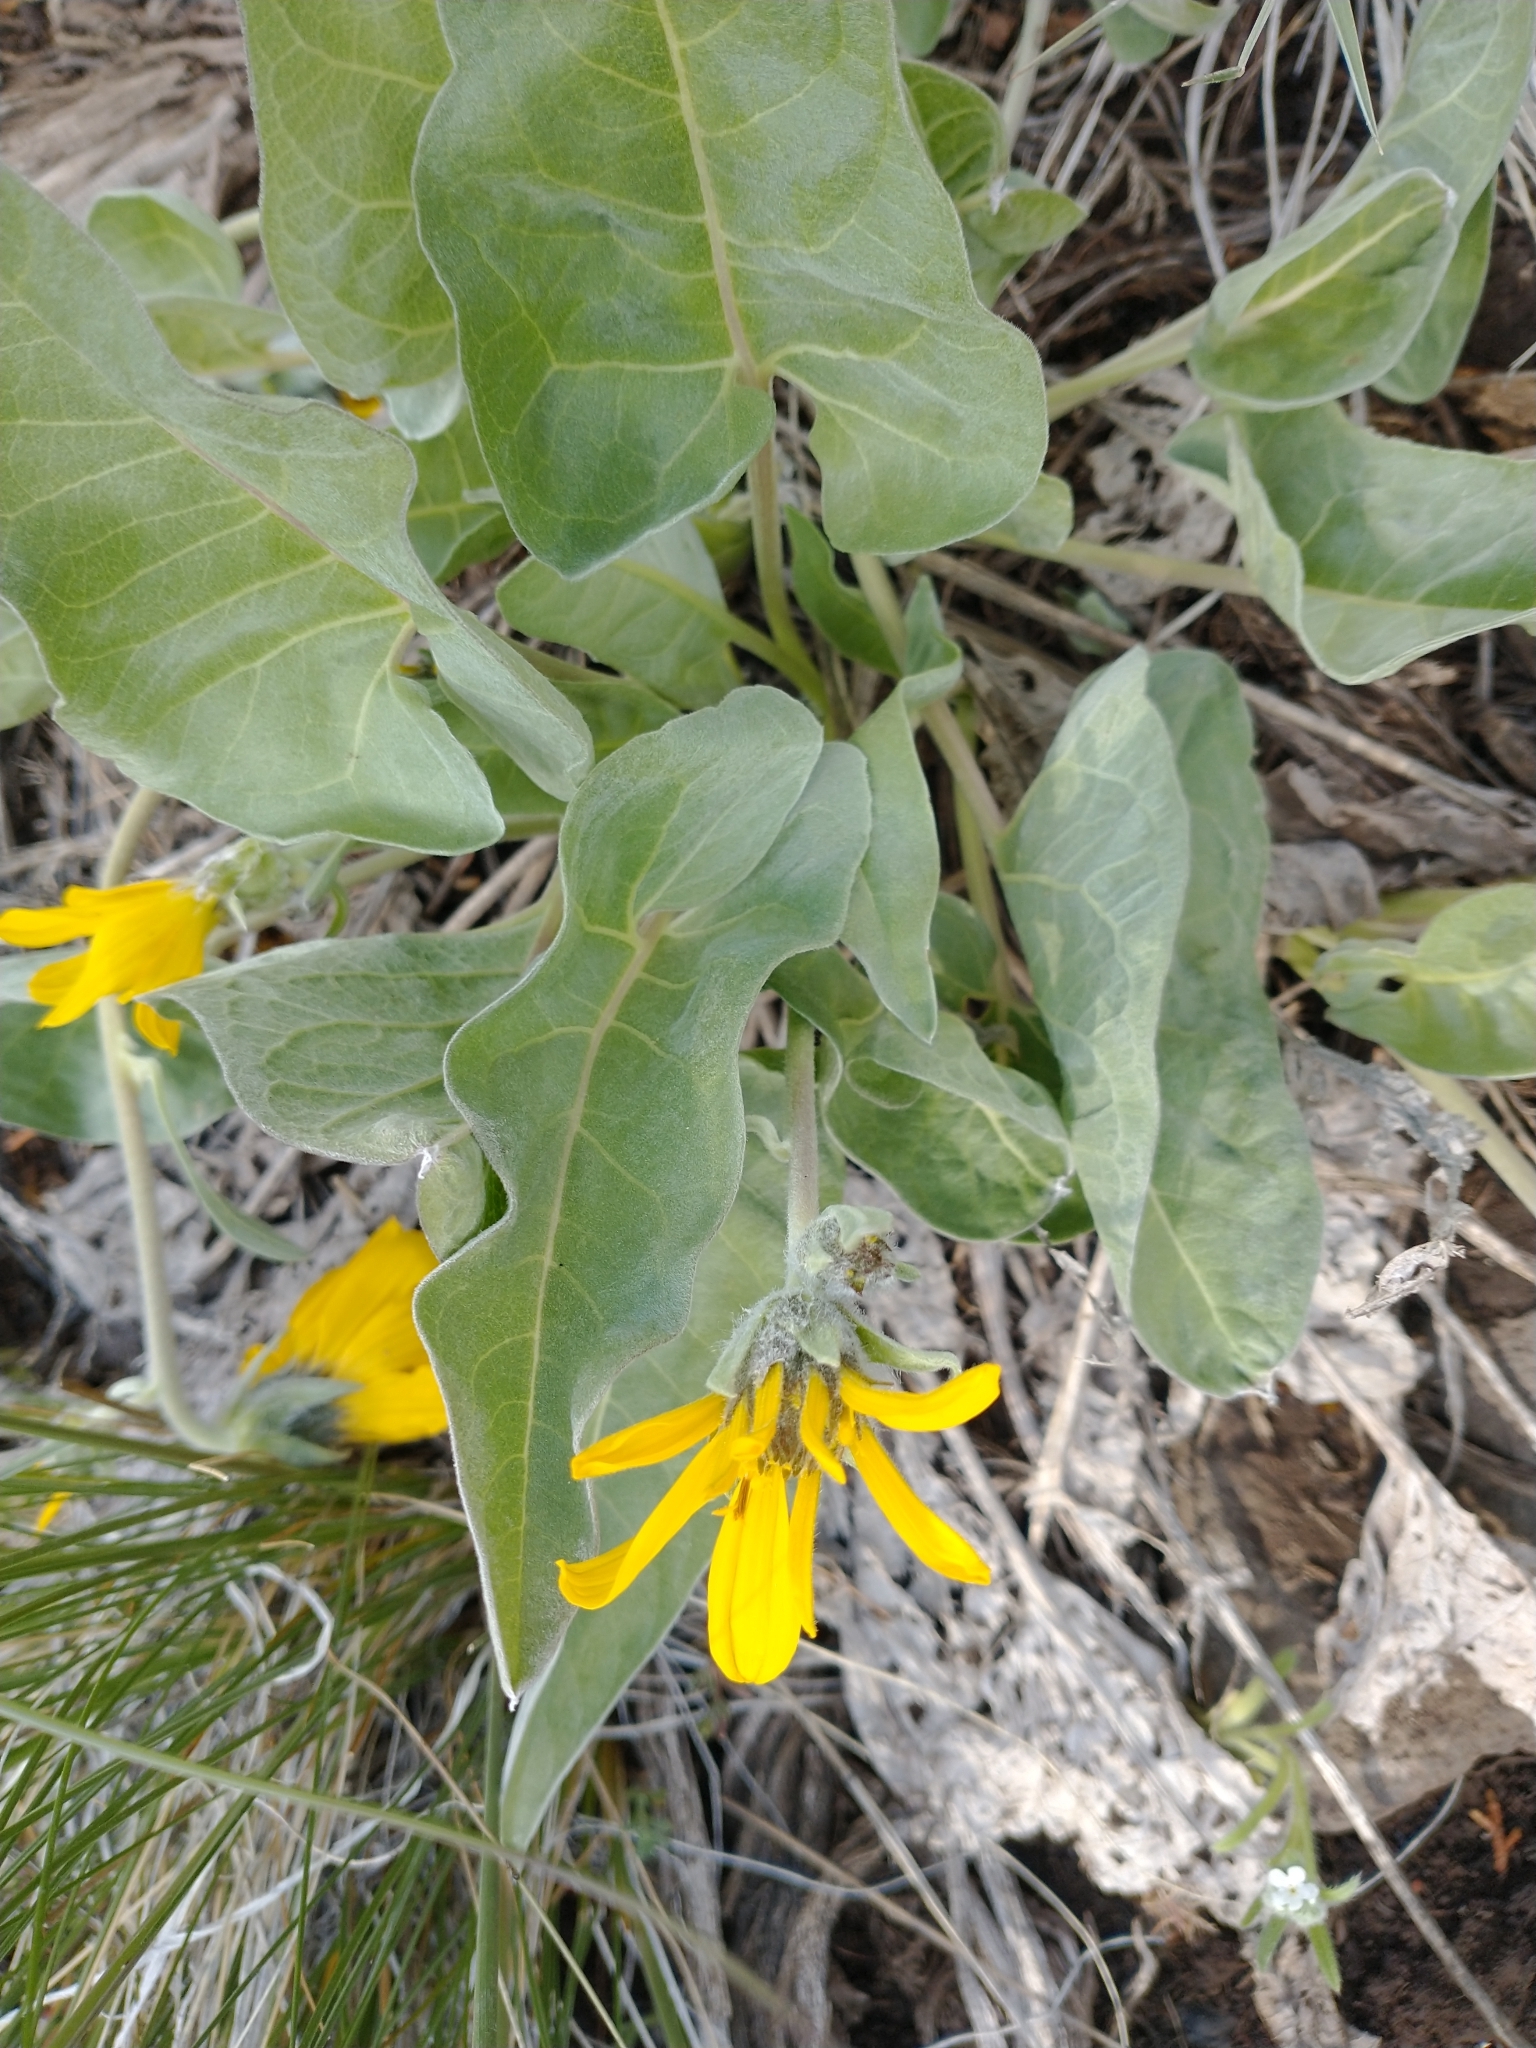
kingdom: Plantae
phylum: Tracheophyta
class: Magnoliopsida
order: Asterales
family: Asteraceae
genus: Wyethia
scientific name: Wyethia sagittata
